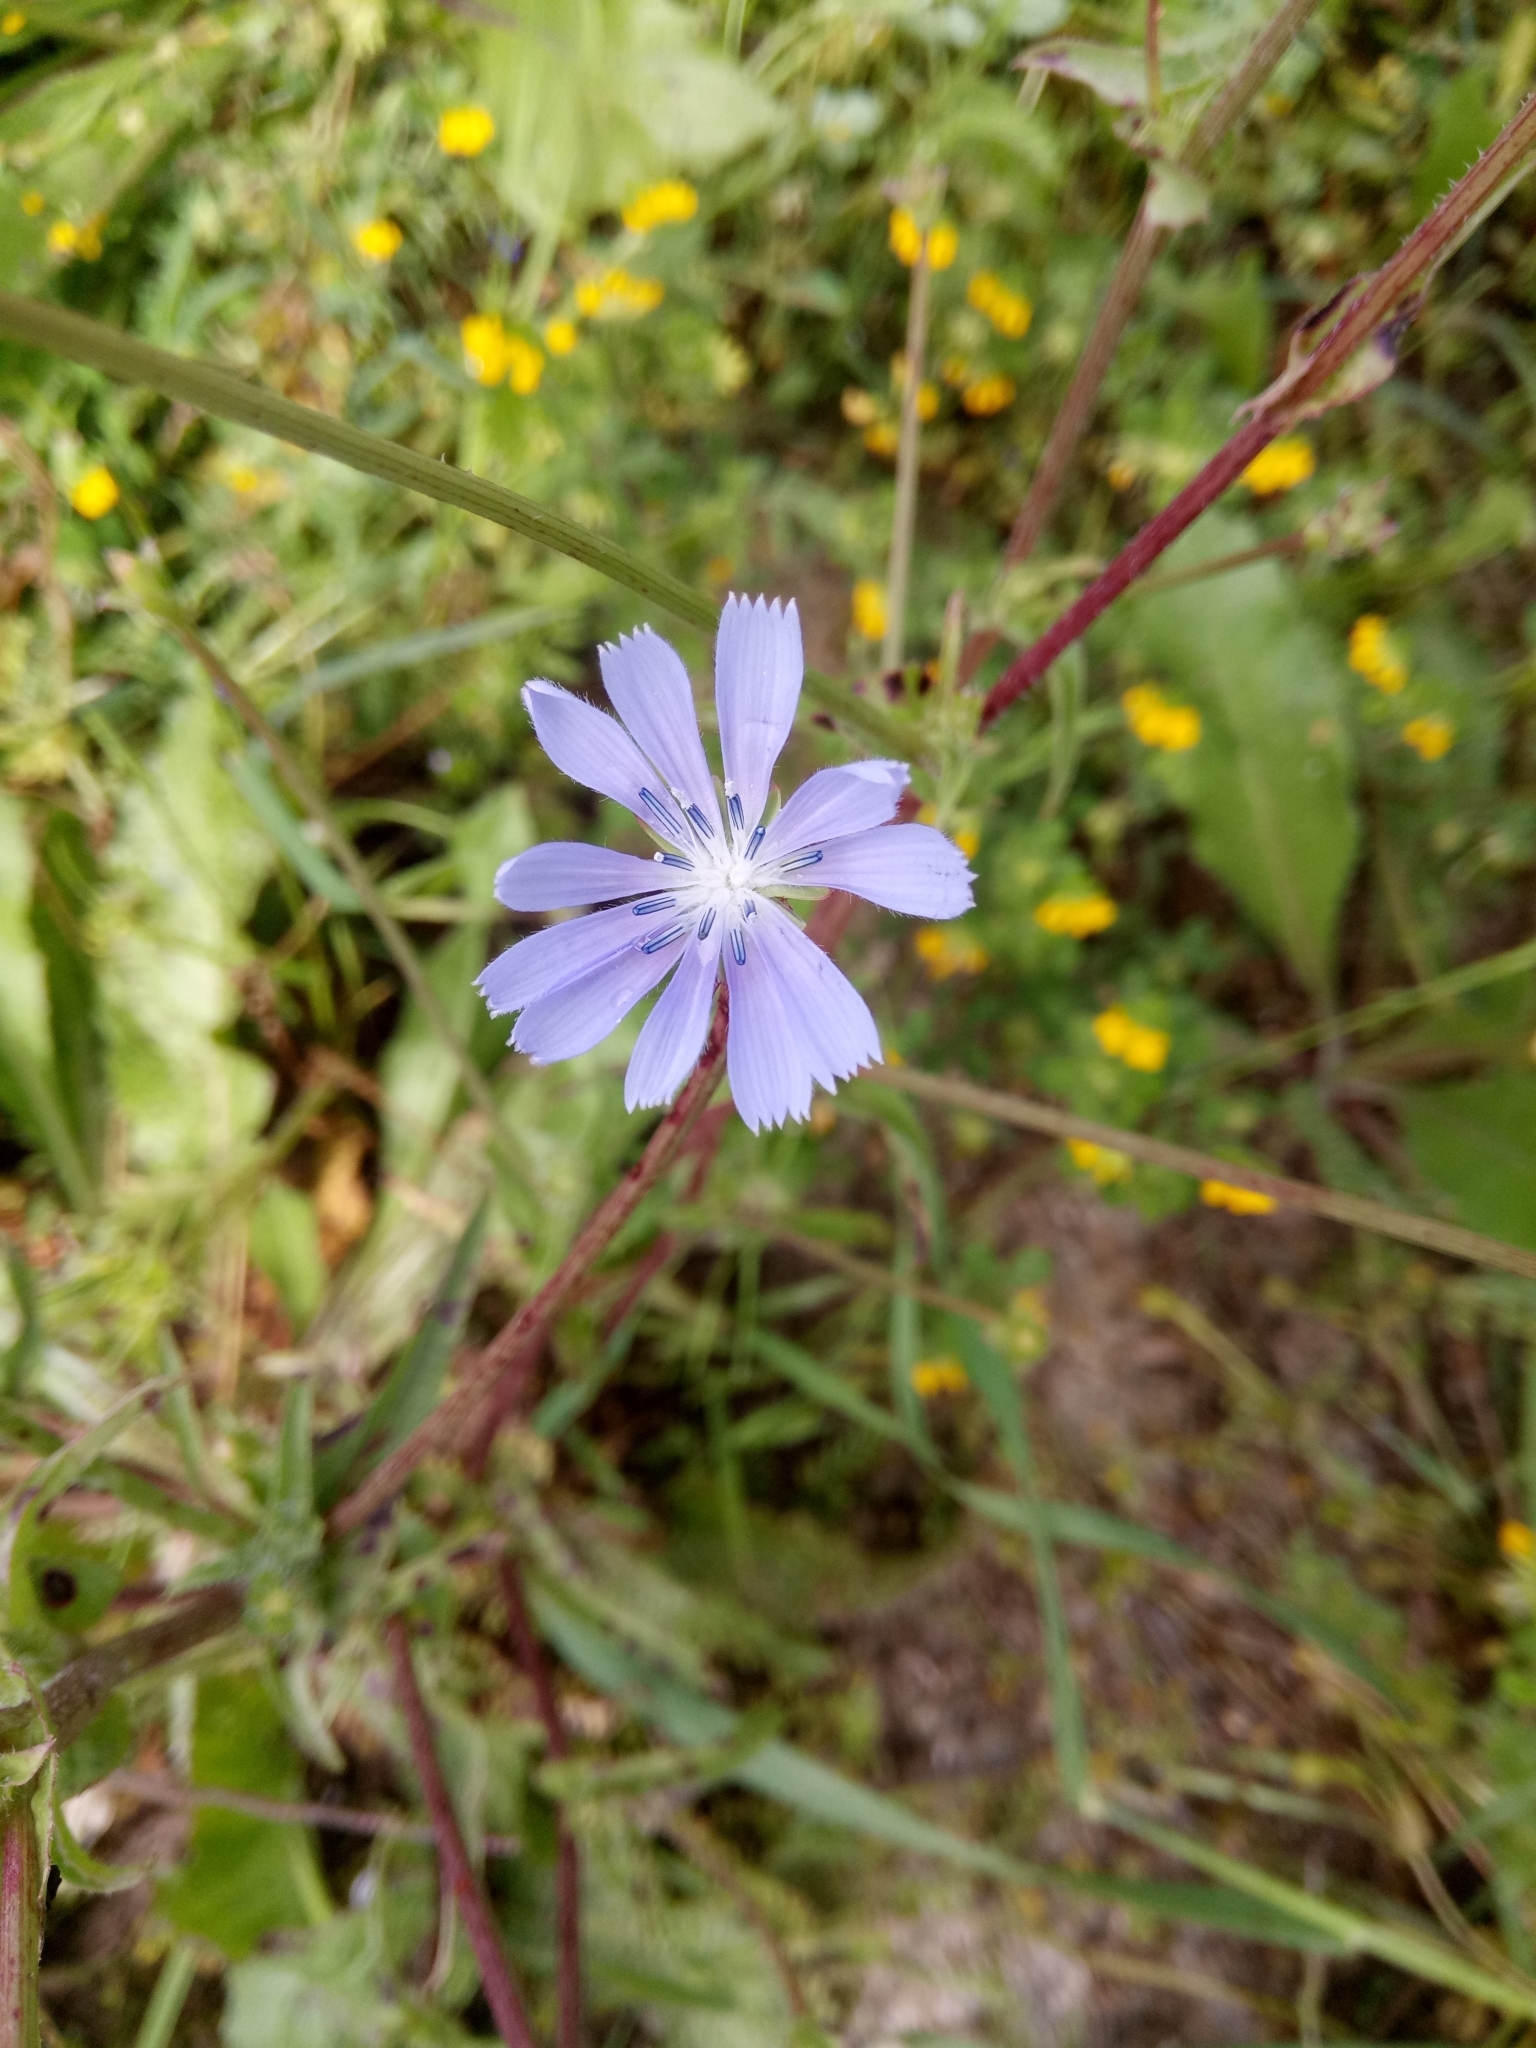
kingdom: Plantae
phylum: Tracheophyta
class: Magnoliopsida
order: Asterales
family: Asteraceae
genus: Cichorium
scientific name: Cichorium intybus
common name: Chicory
